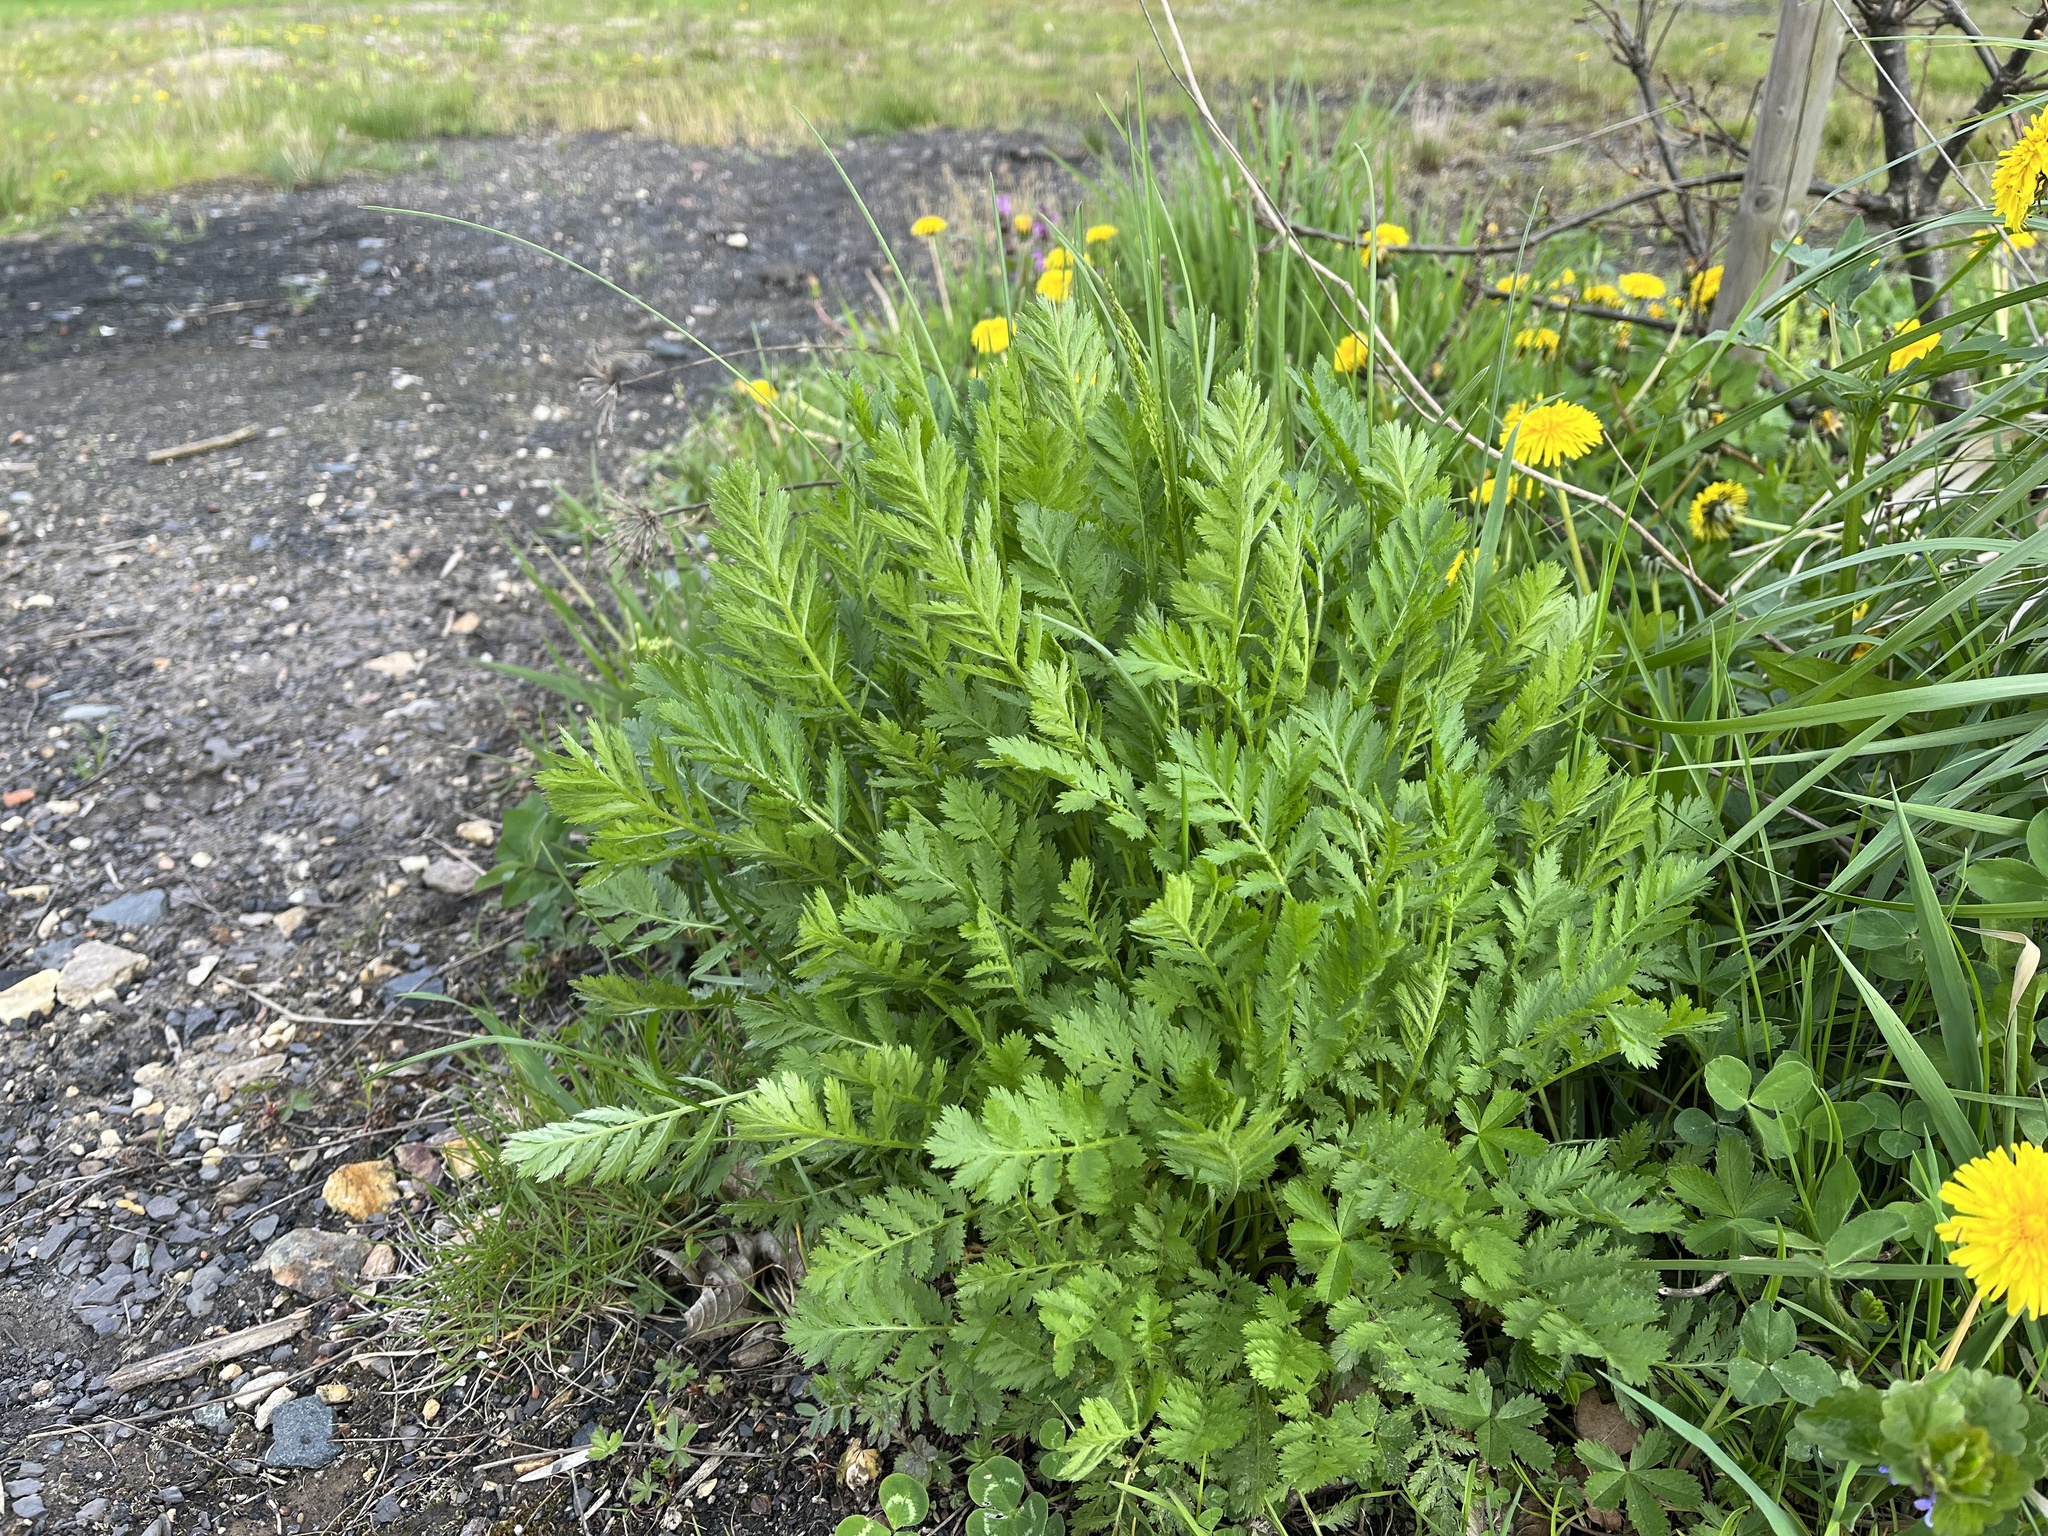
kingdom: Plantae
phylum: Tracheophyta
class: Magnoliopsida
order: Asterales
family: Asteraceae
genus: Tanacetum
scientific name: Tanacetum vulgare
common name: Common tansy
